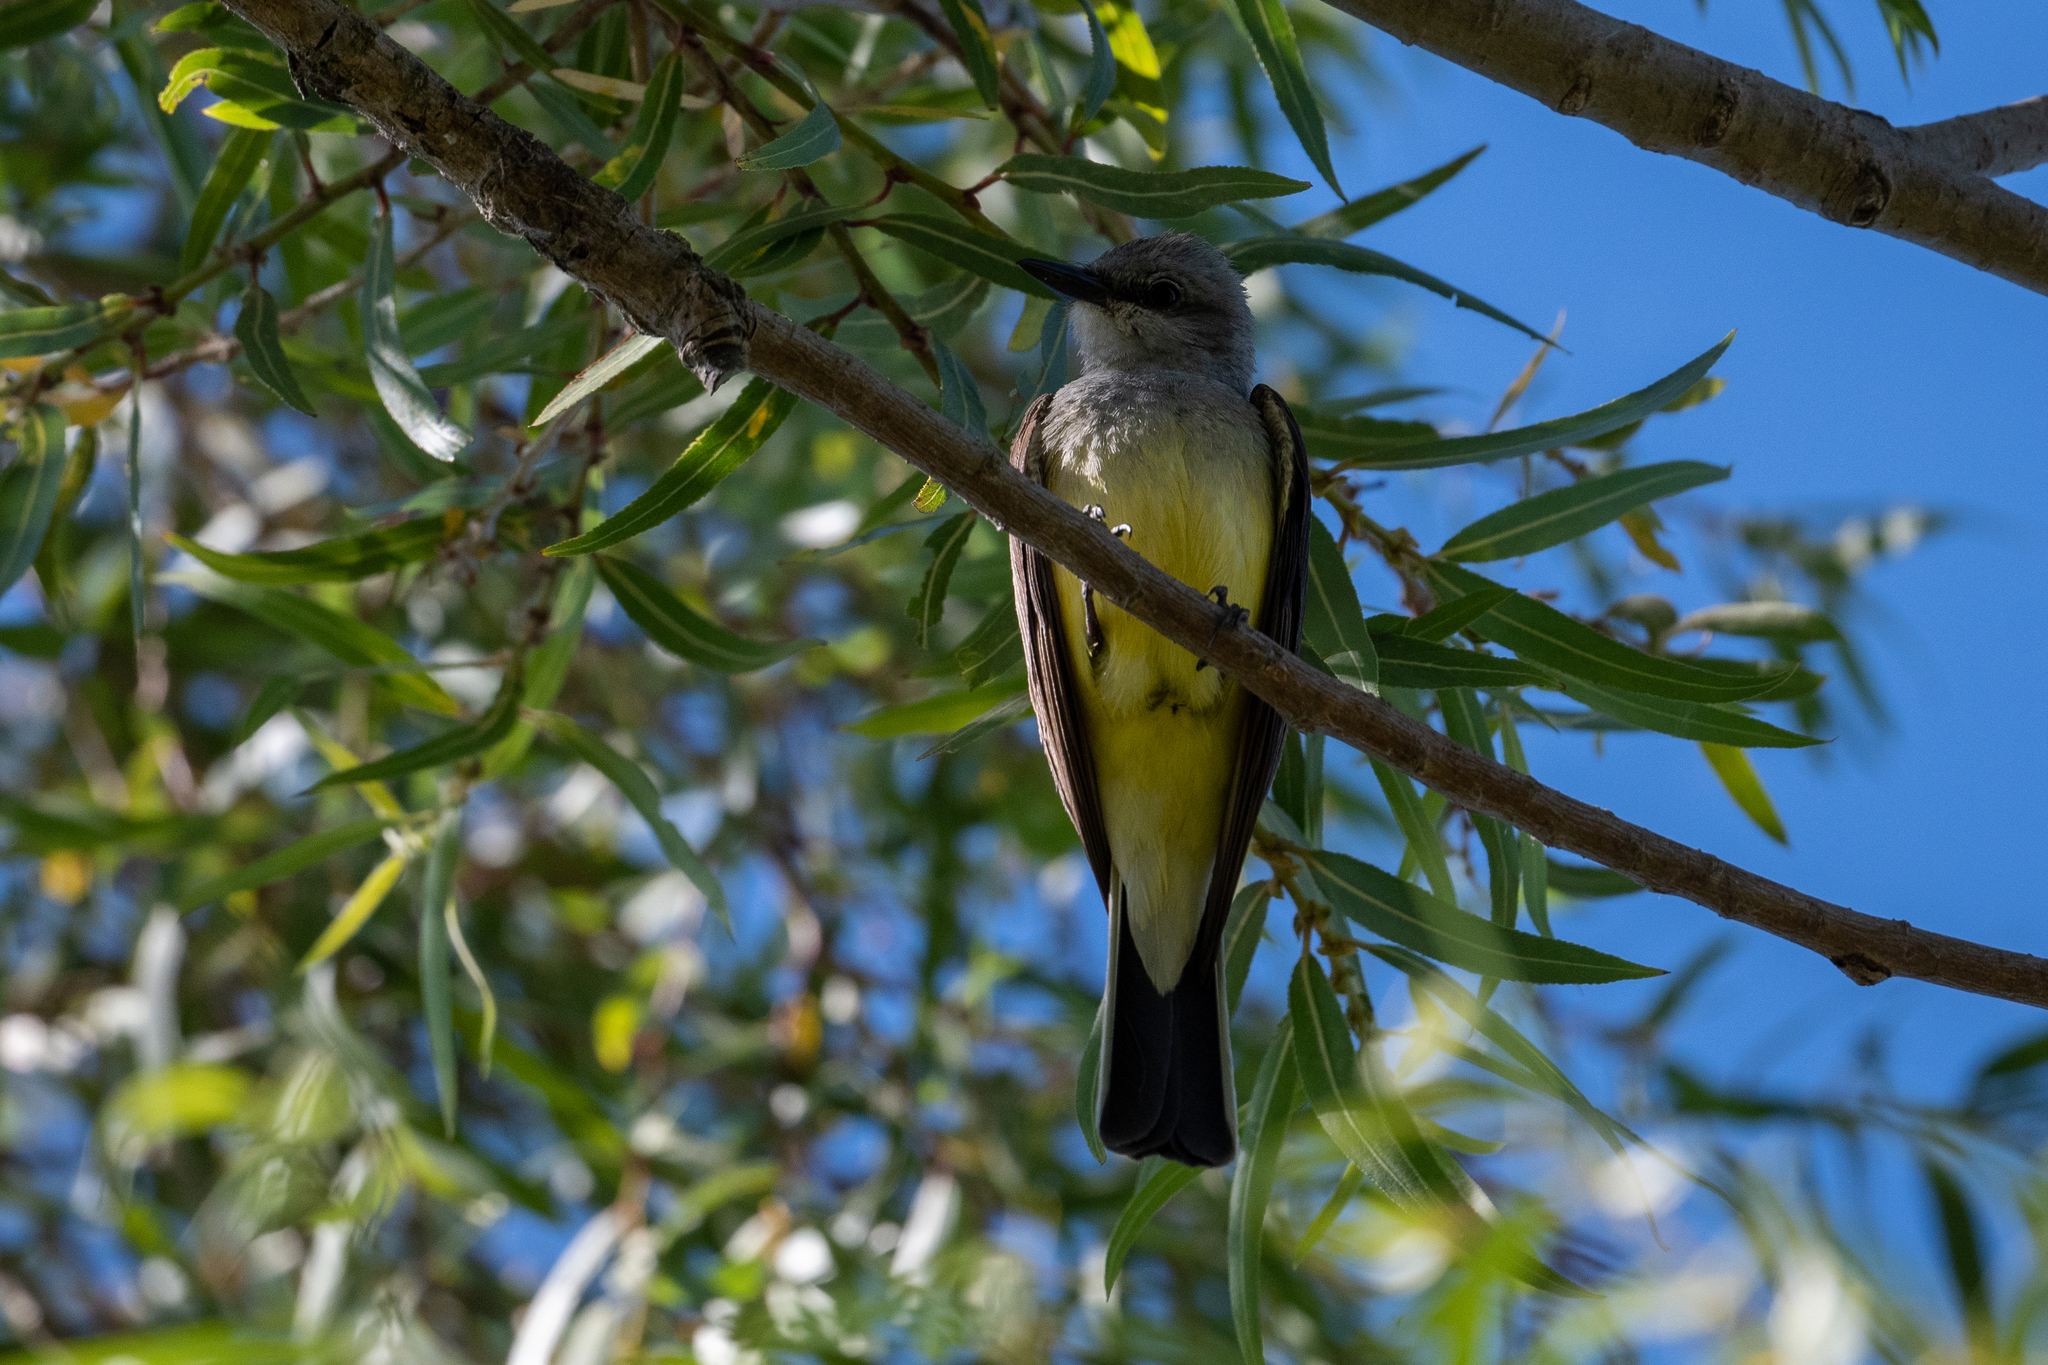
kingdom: Animalia
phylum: Chordata
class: Aves
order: Passeriformes
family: Tyrannidae
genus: Tyrannus
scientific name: Tyrannus verticalis
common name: Western kingbird
